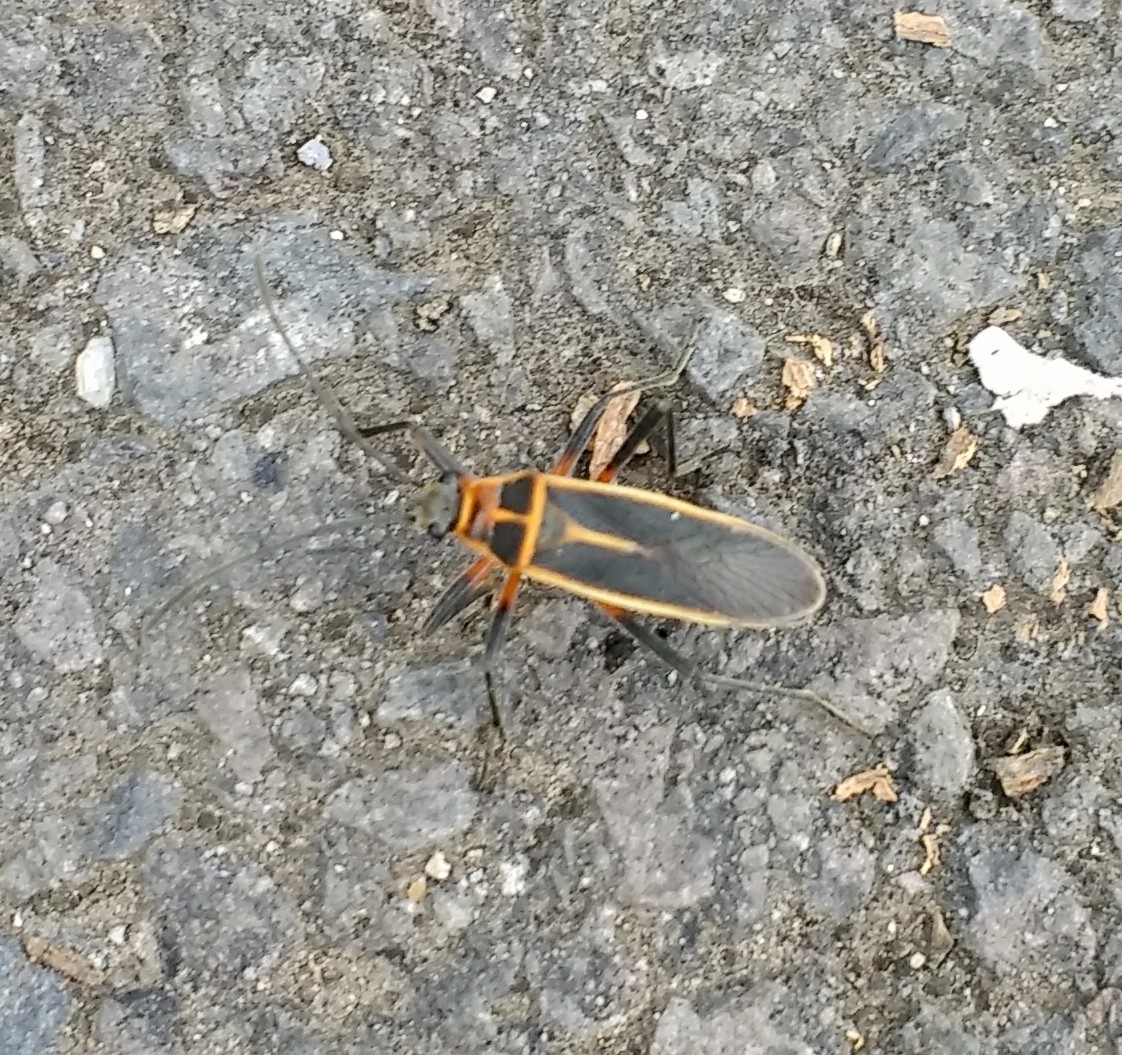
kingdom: Animalia
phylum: Arthropoda
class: Insecta
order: Hemiptera
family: Largidae
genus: Stenomacra
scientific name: Stenomacra marginella
